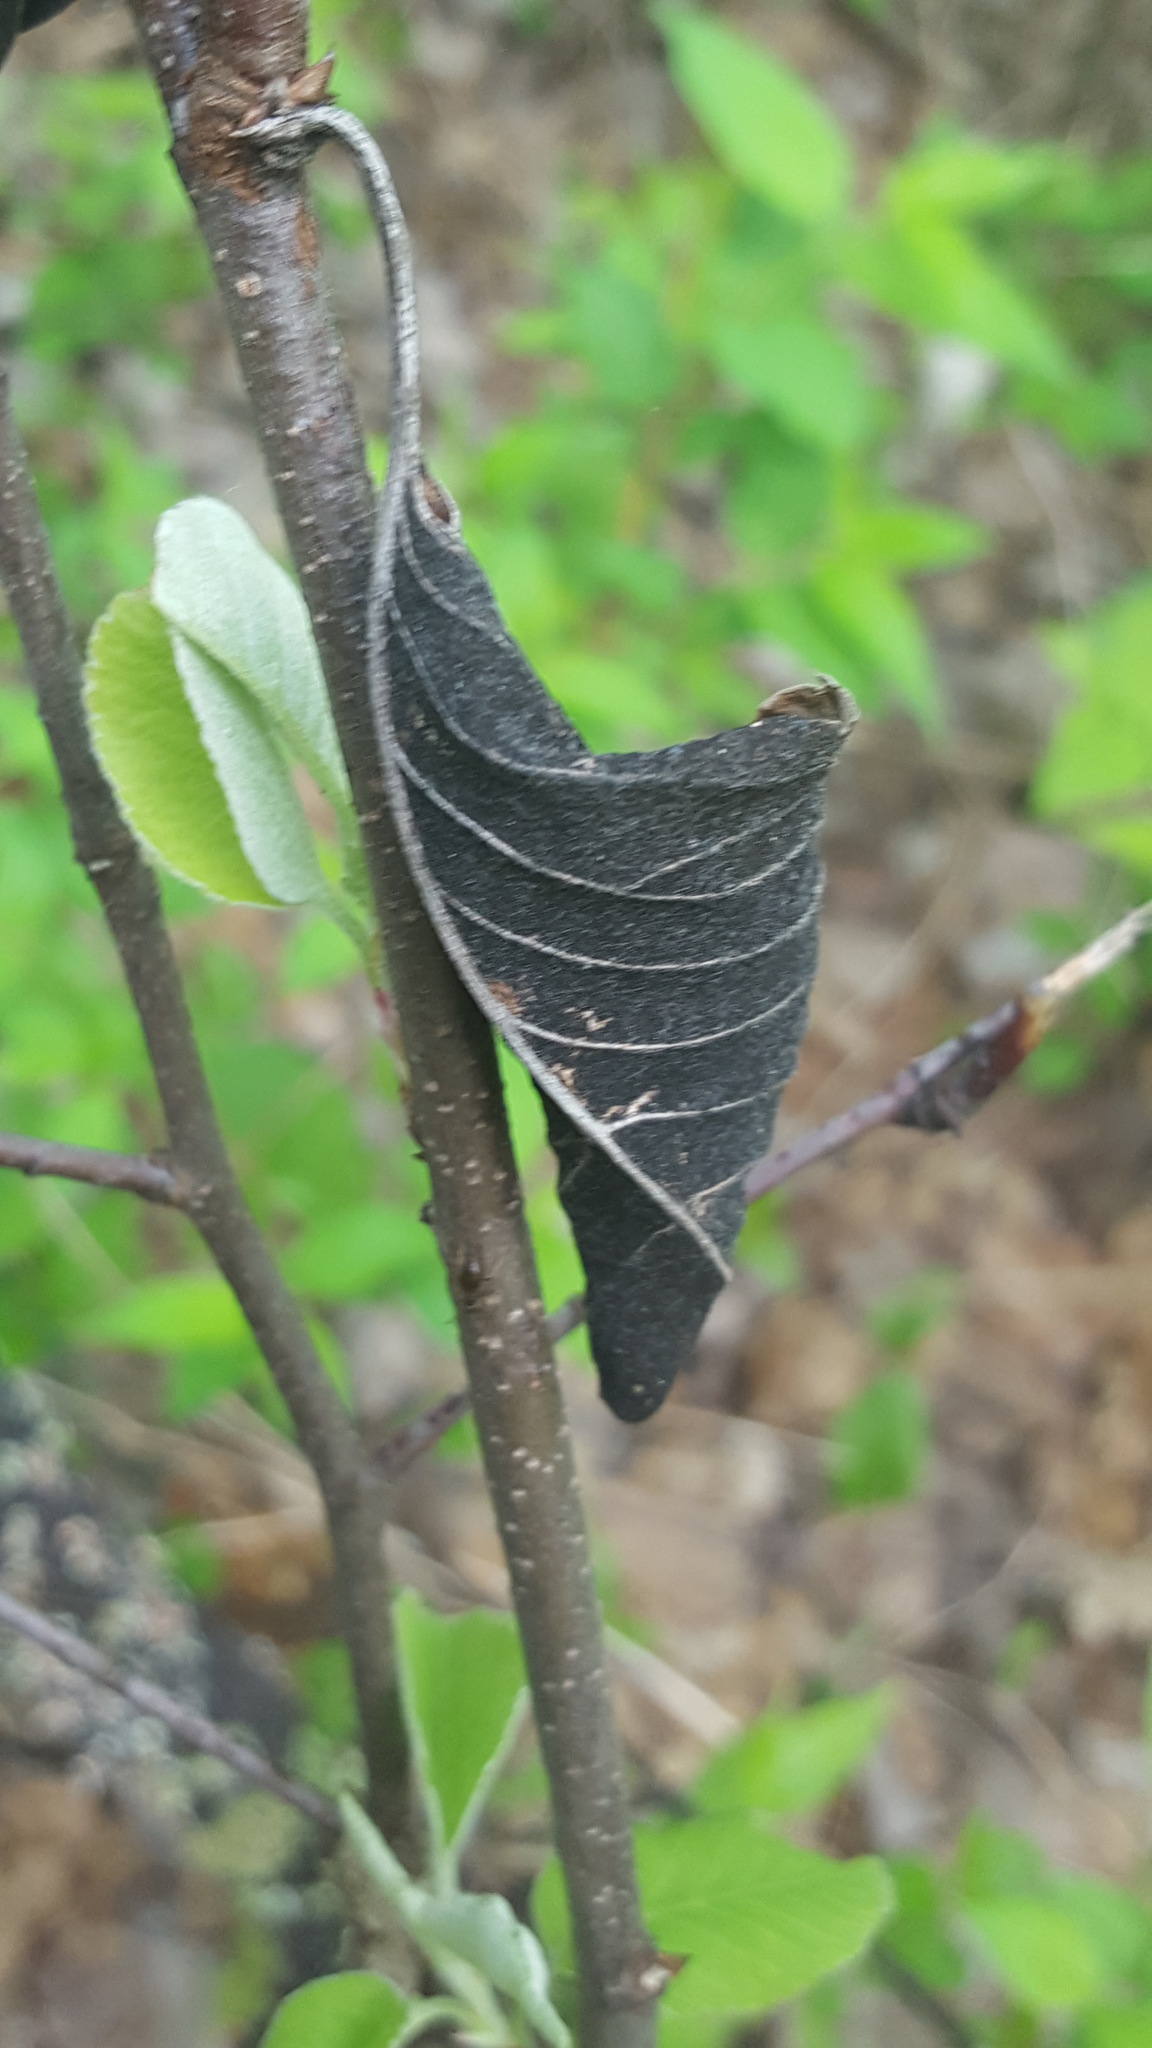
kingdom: Fungi
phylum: Ascomycota
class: Dothideomycetes
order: Venturiales
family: Venturiaceae
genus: Apiosporina
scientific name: Apiosporina collinsii
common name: Black leaf
